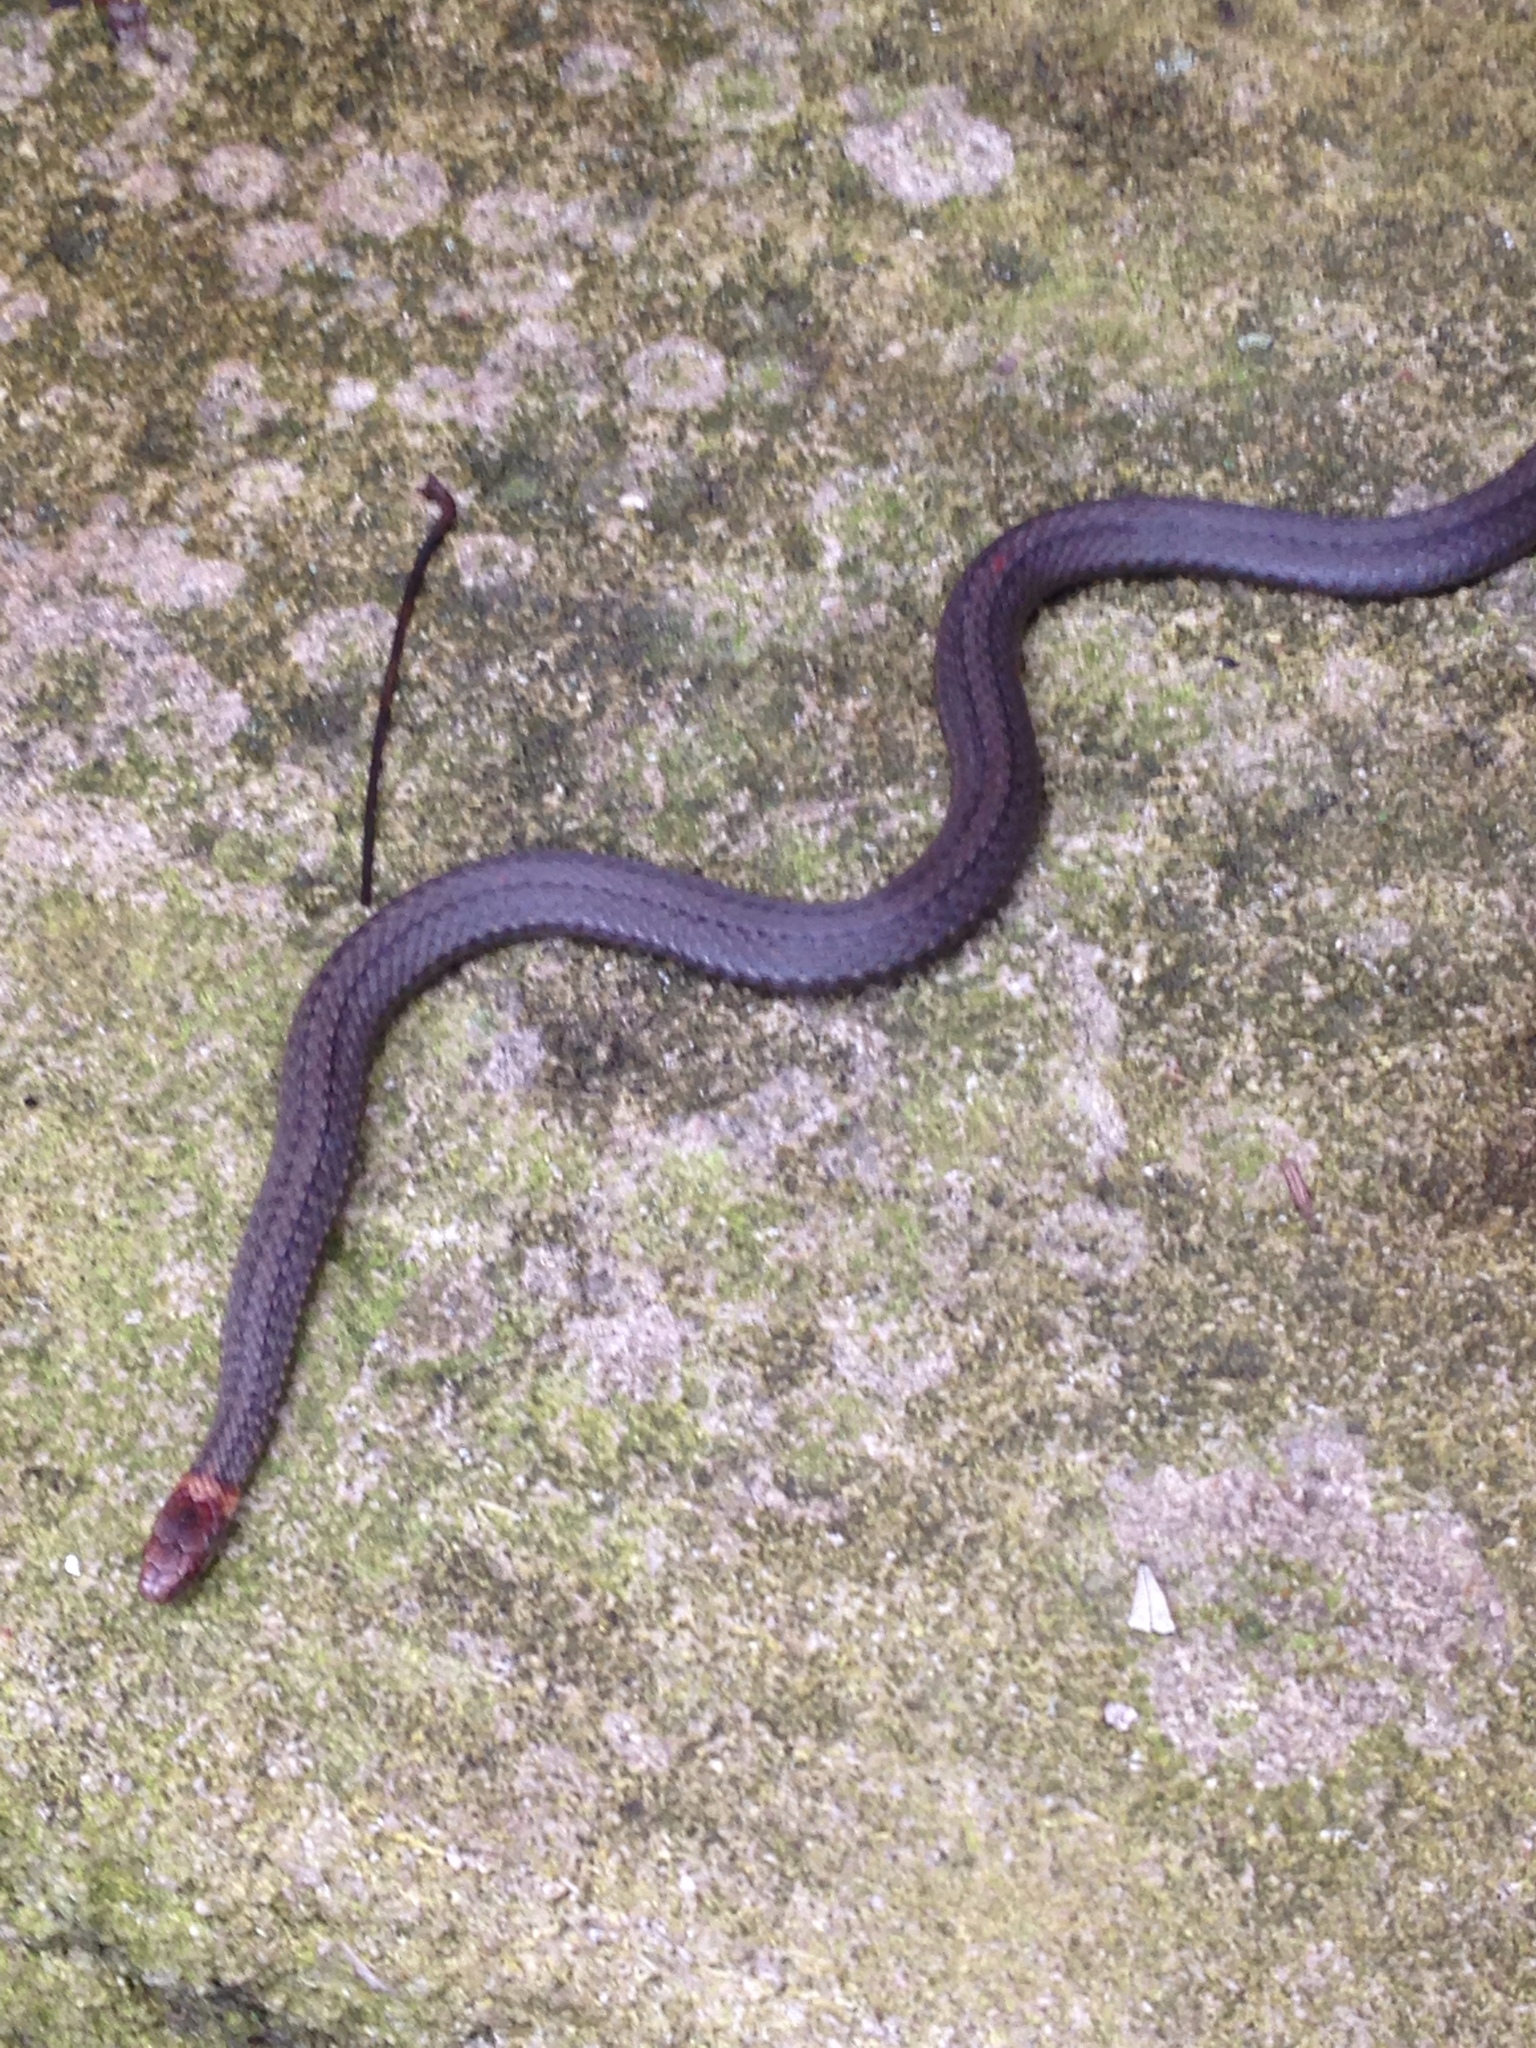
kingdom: Animalia
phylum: Chordata
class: Squamata
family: Colubridae
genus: Storeria
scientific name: Storeria occipitomaculata
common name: Redbelly snake
